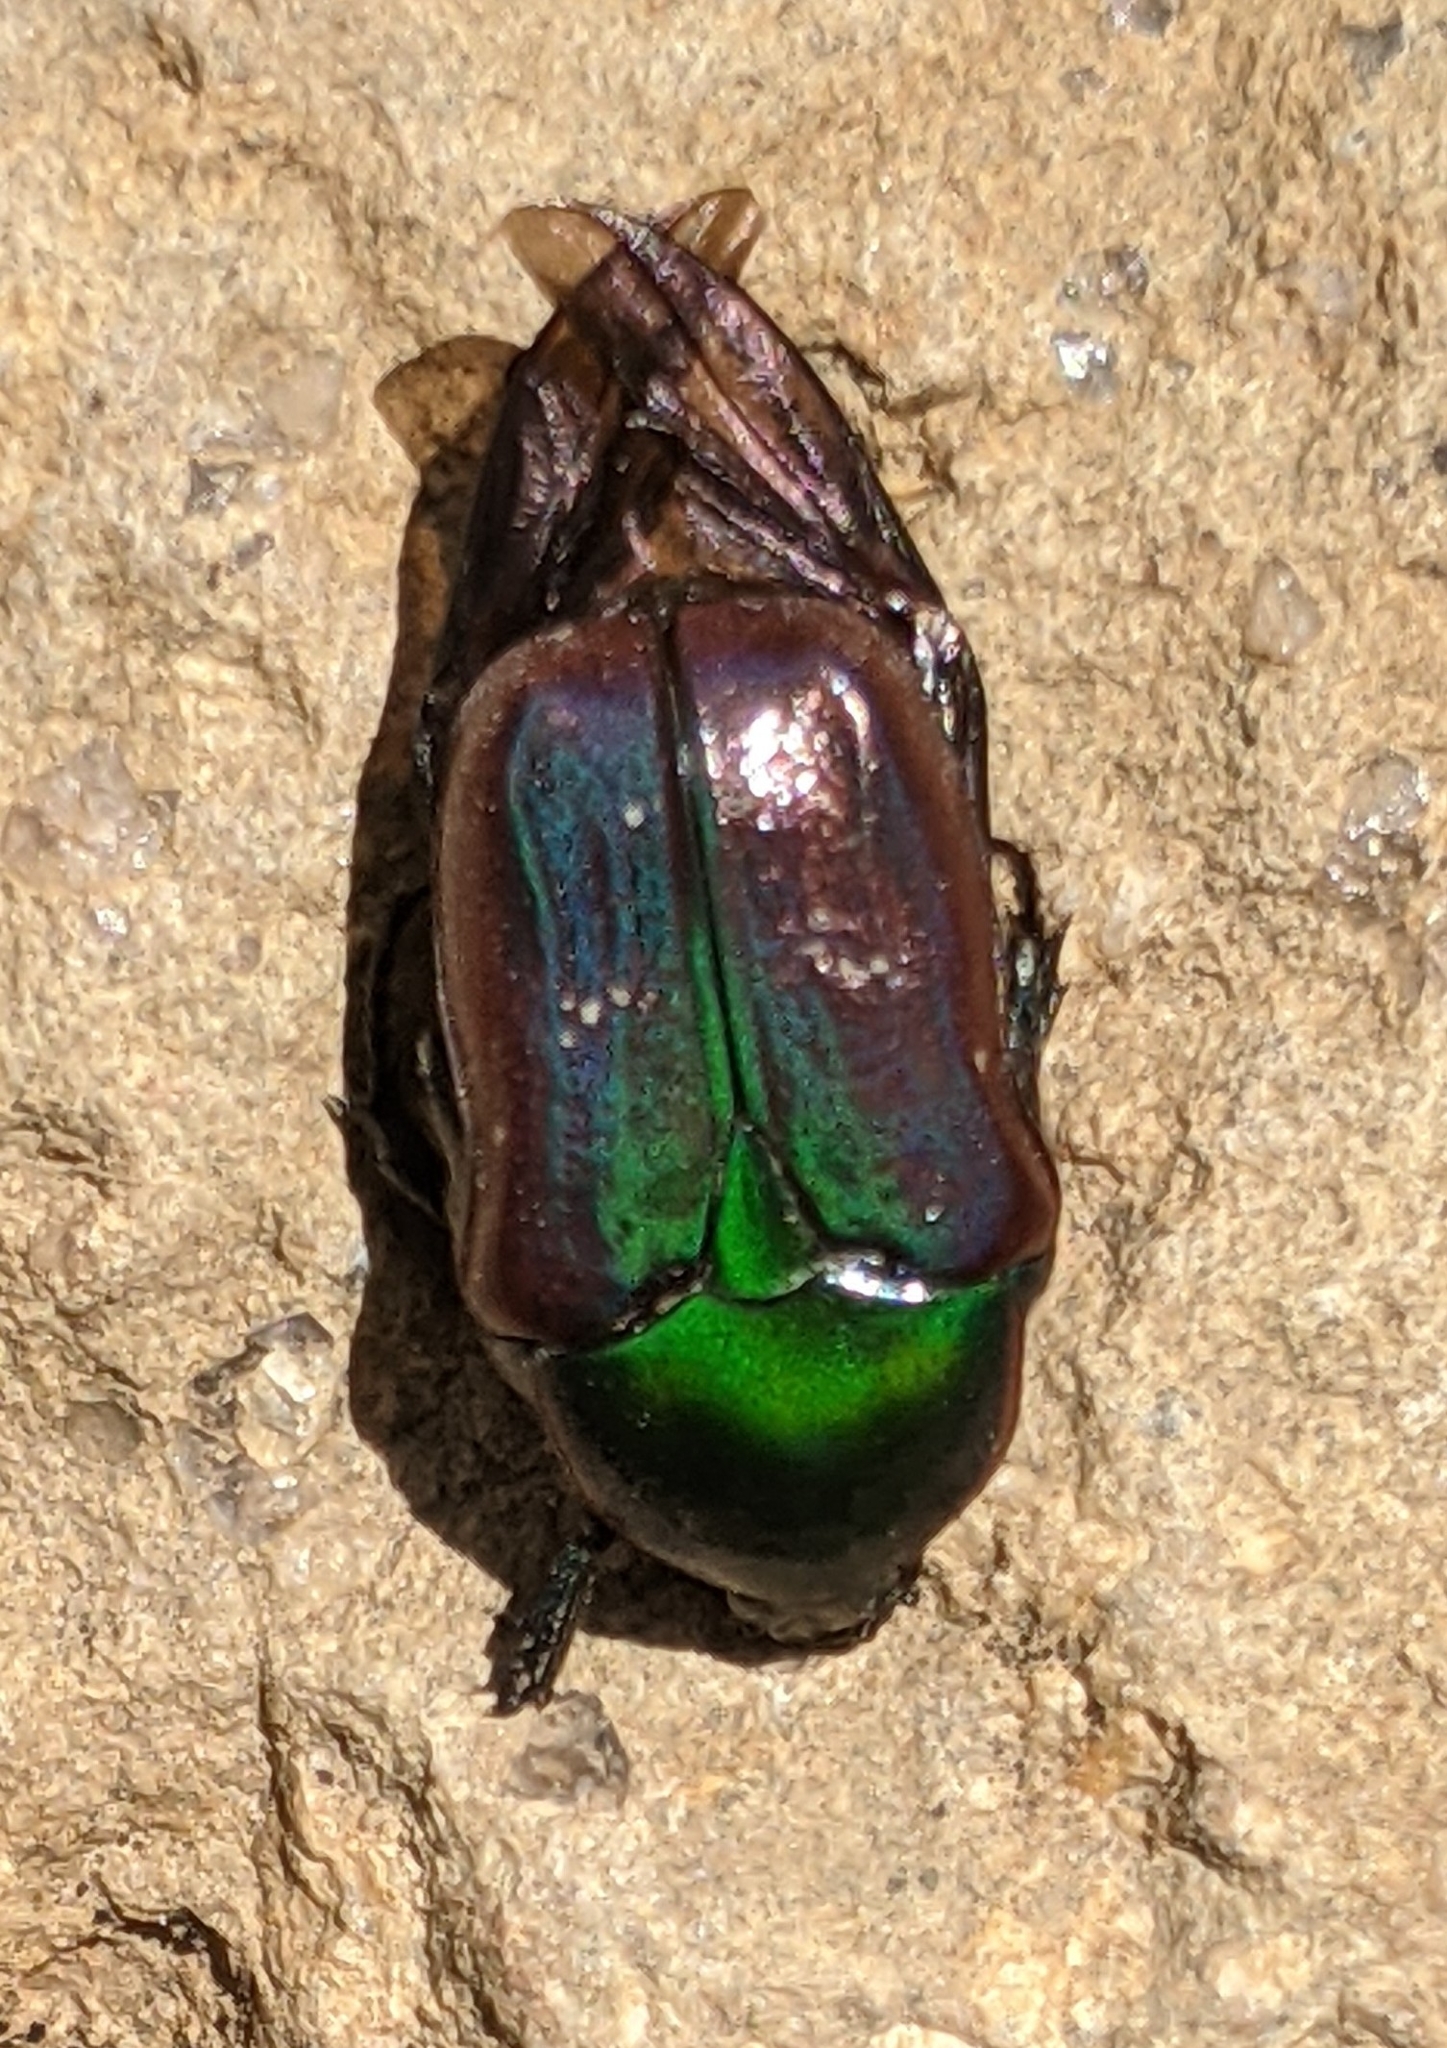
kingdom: Animalia
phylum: Arthropoda
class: Insecta
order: Coleoptera
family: Scarabaeidae
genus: Euphoria
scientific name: Euphoria fulgida
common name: Emerald euphoria
